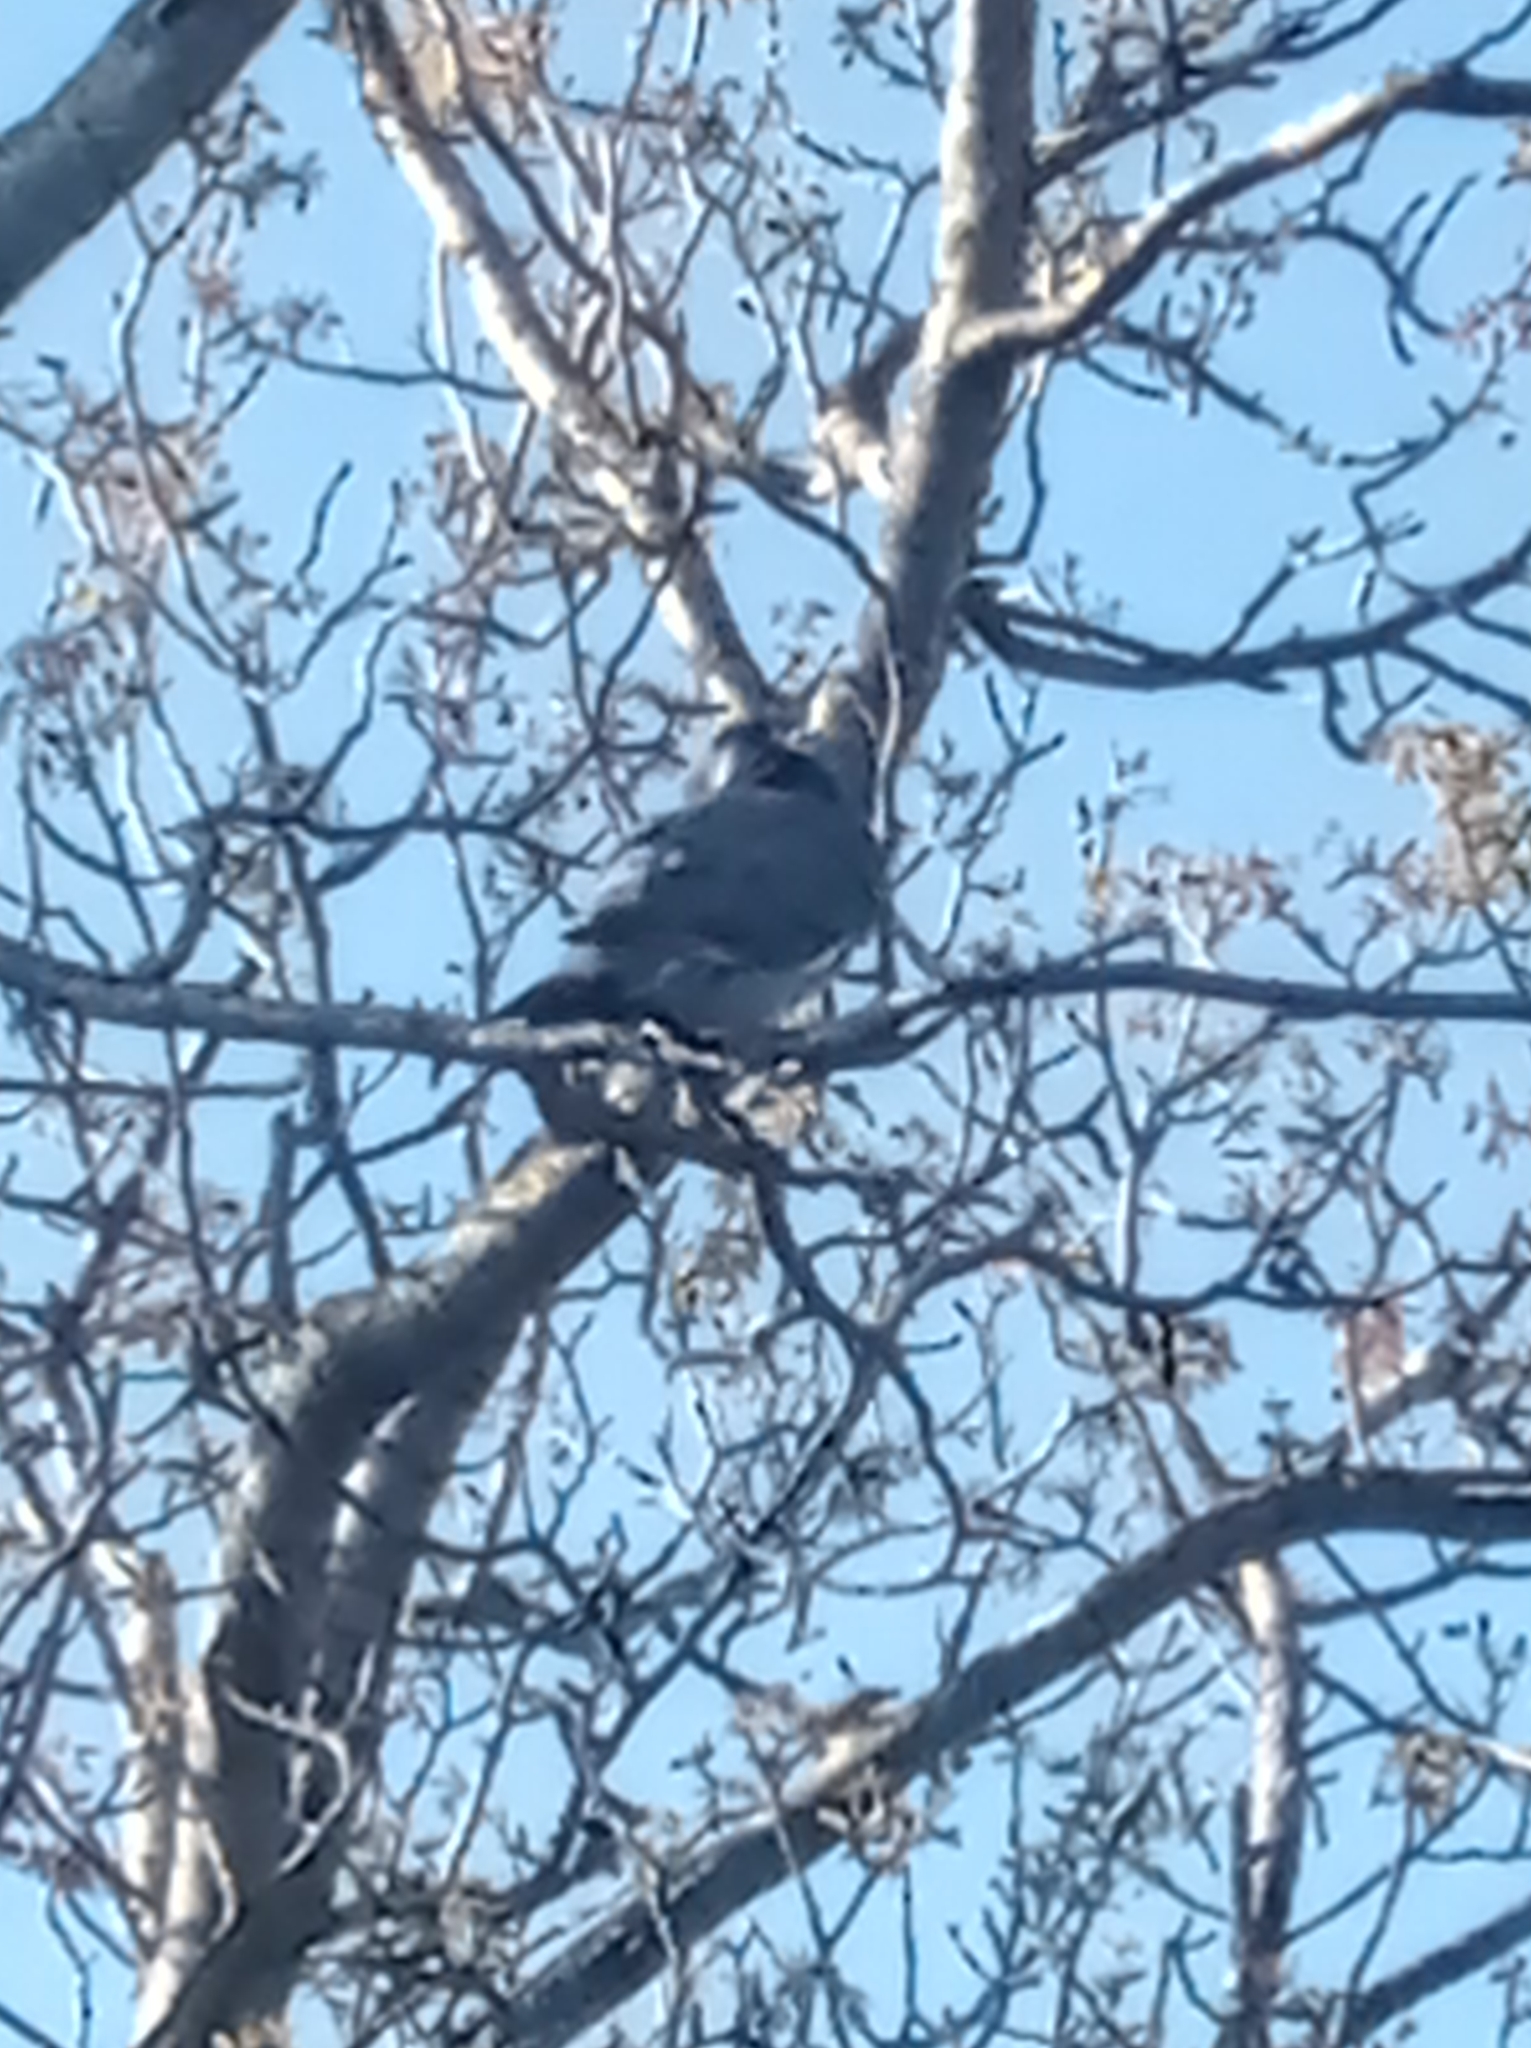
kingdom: Animalia
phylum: Chordata
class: Aves
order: Columbiformes
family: Columbidae
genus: Columba
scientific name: Columba palumbus
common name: Common wood pigeon
